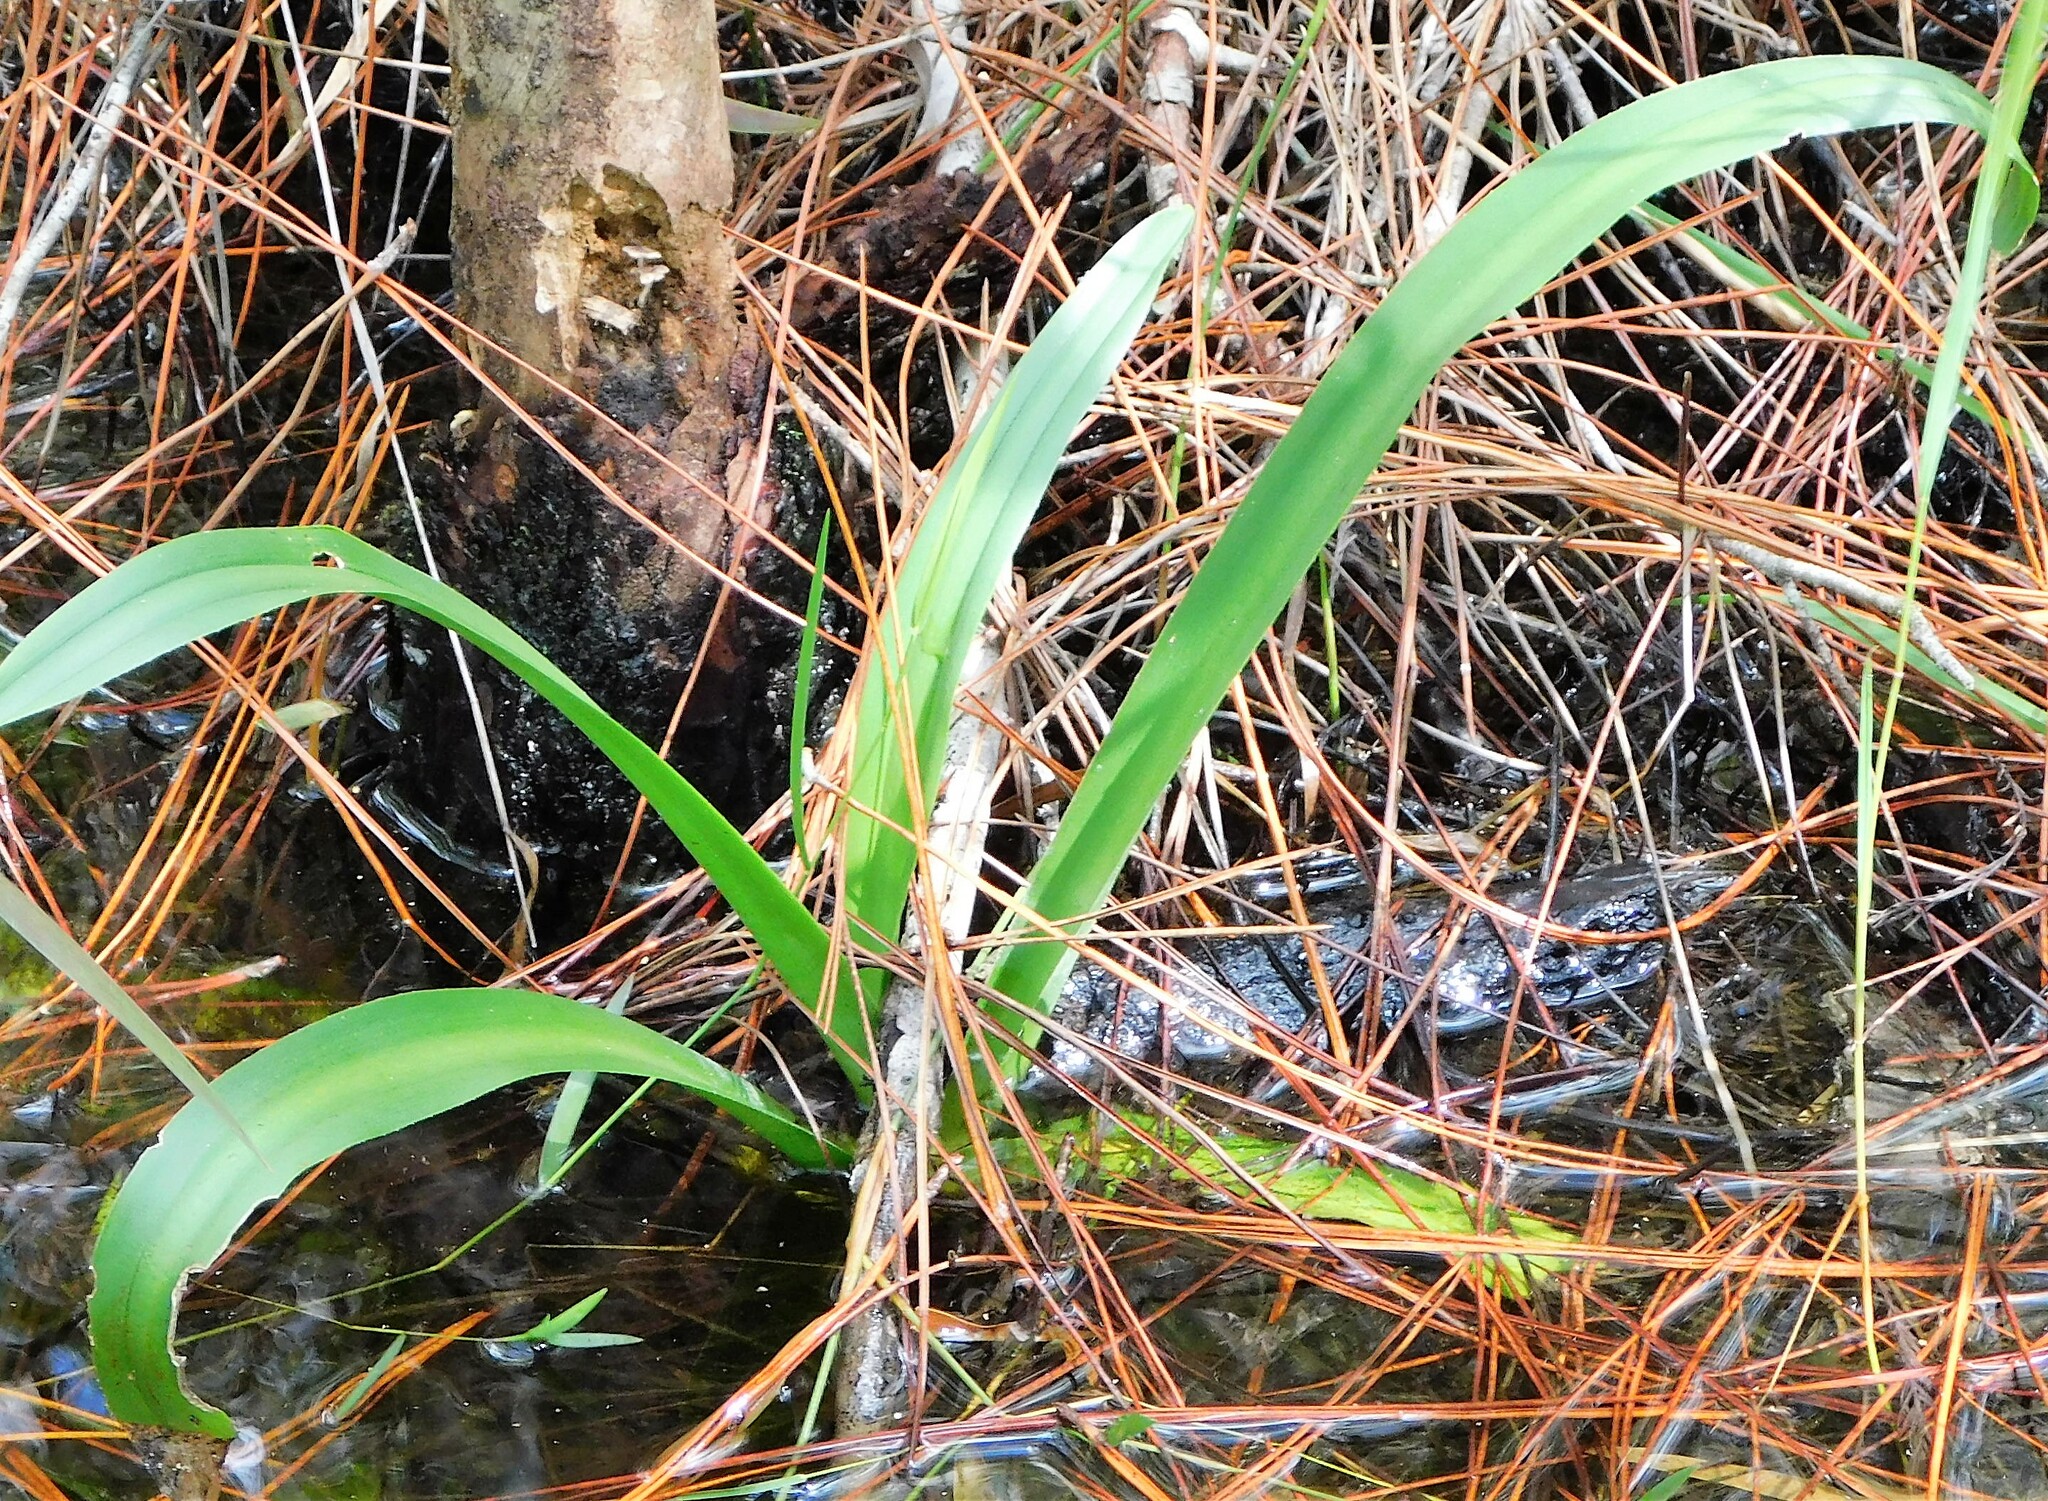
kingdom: Plantae
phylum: Tracheophyta
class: Liliopsida
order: Asparagales
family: Amaryllidaceae
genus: Crinum
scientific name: Crinum americanum
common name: Florida swamp-lily
